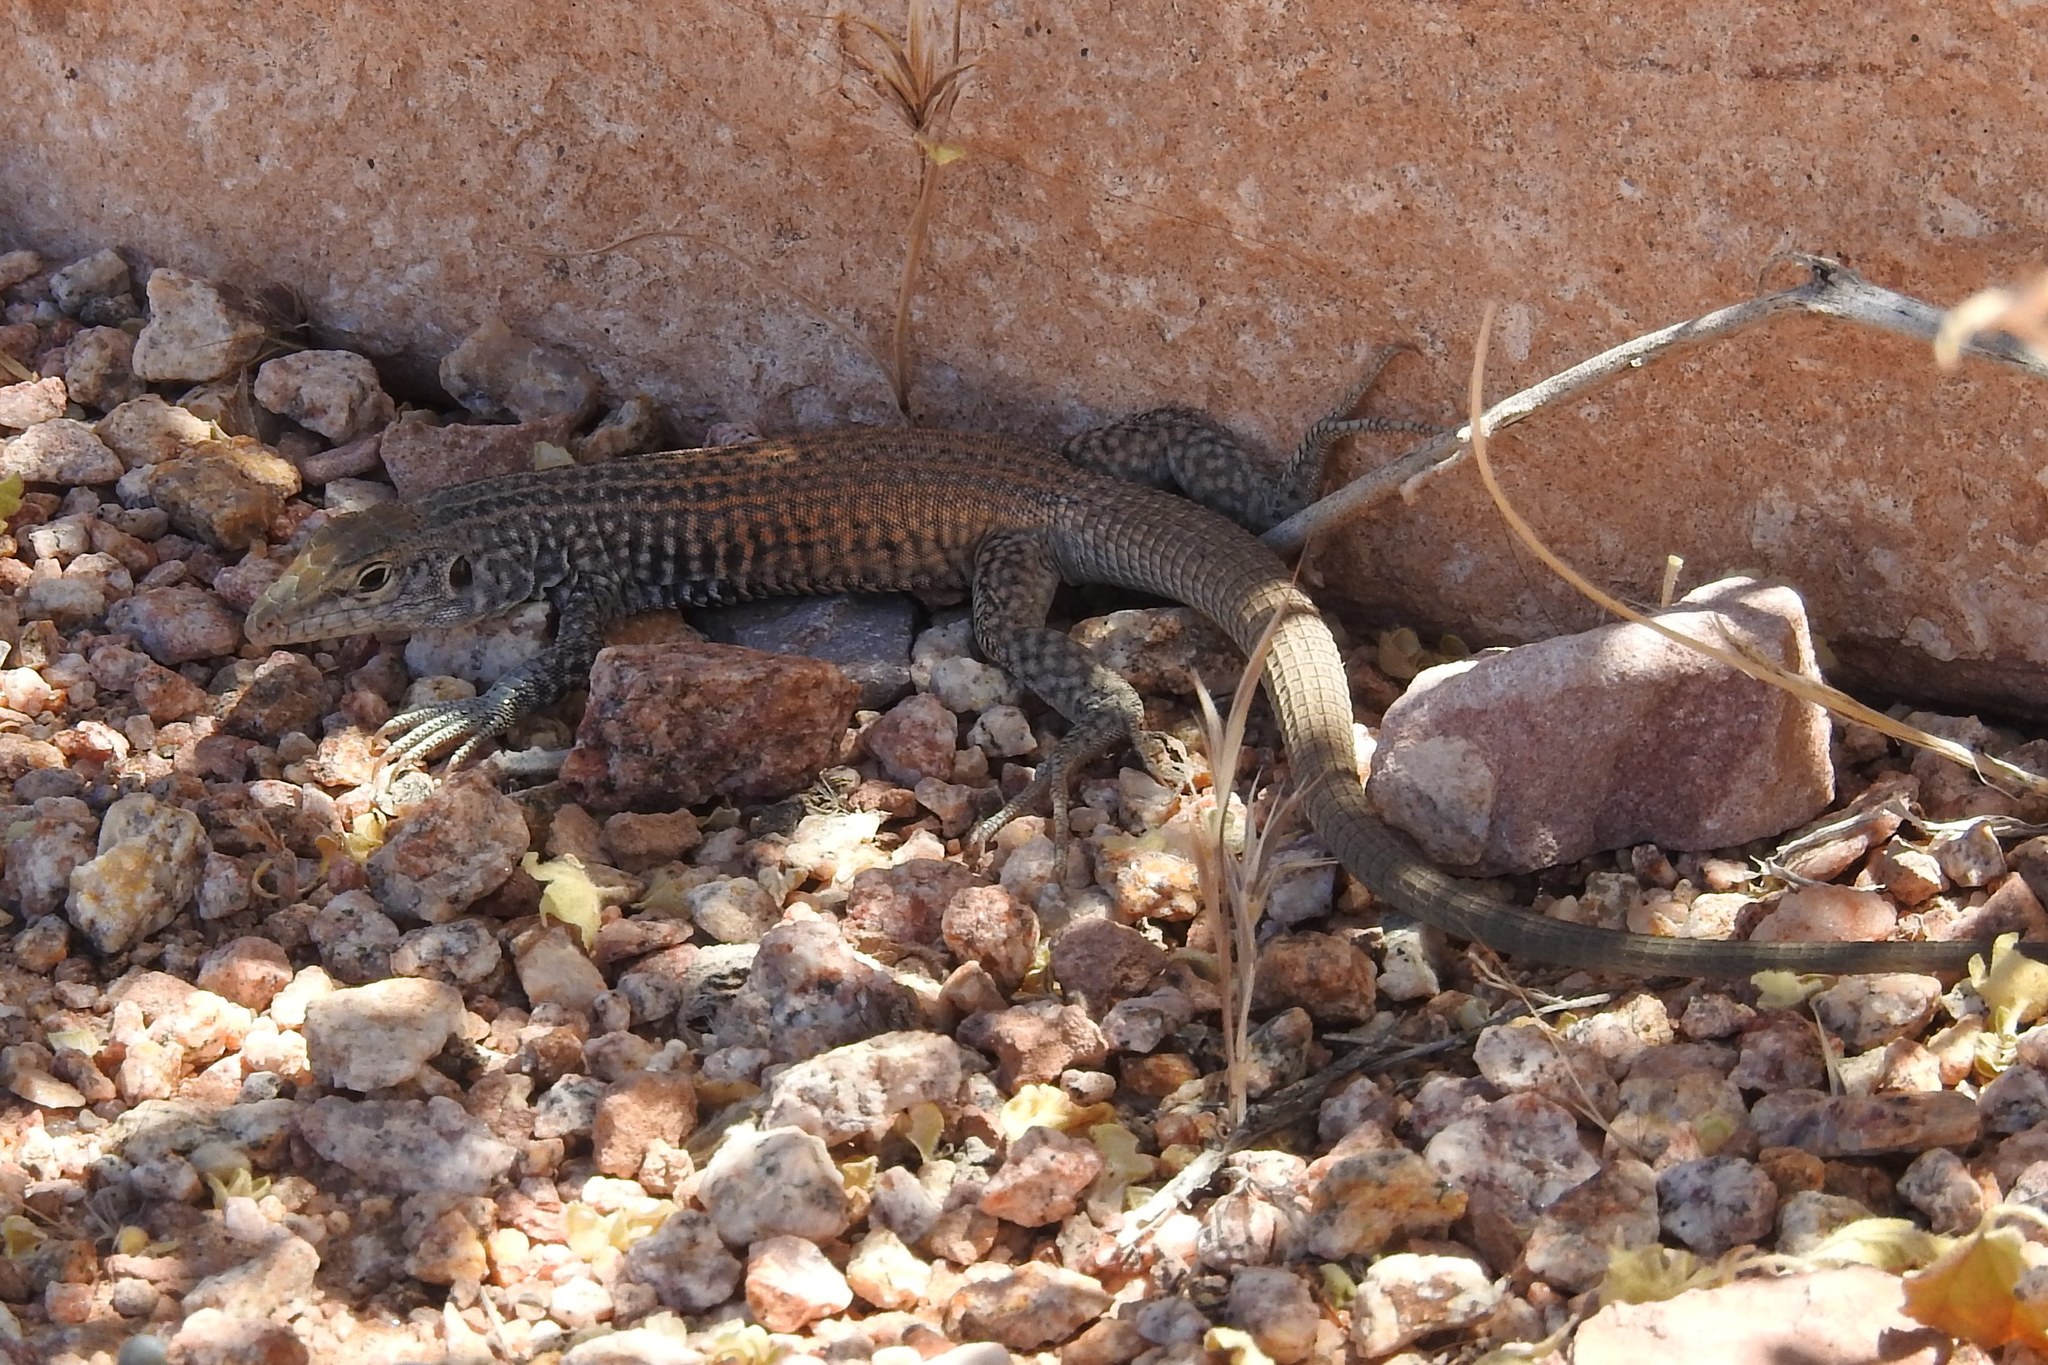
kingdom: Animalia
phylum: Chordata
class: Squamata
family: Teiidae
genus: Aspidoscelis
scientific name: Aspidoscelis tigris
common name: Tiger whiptail
